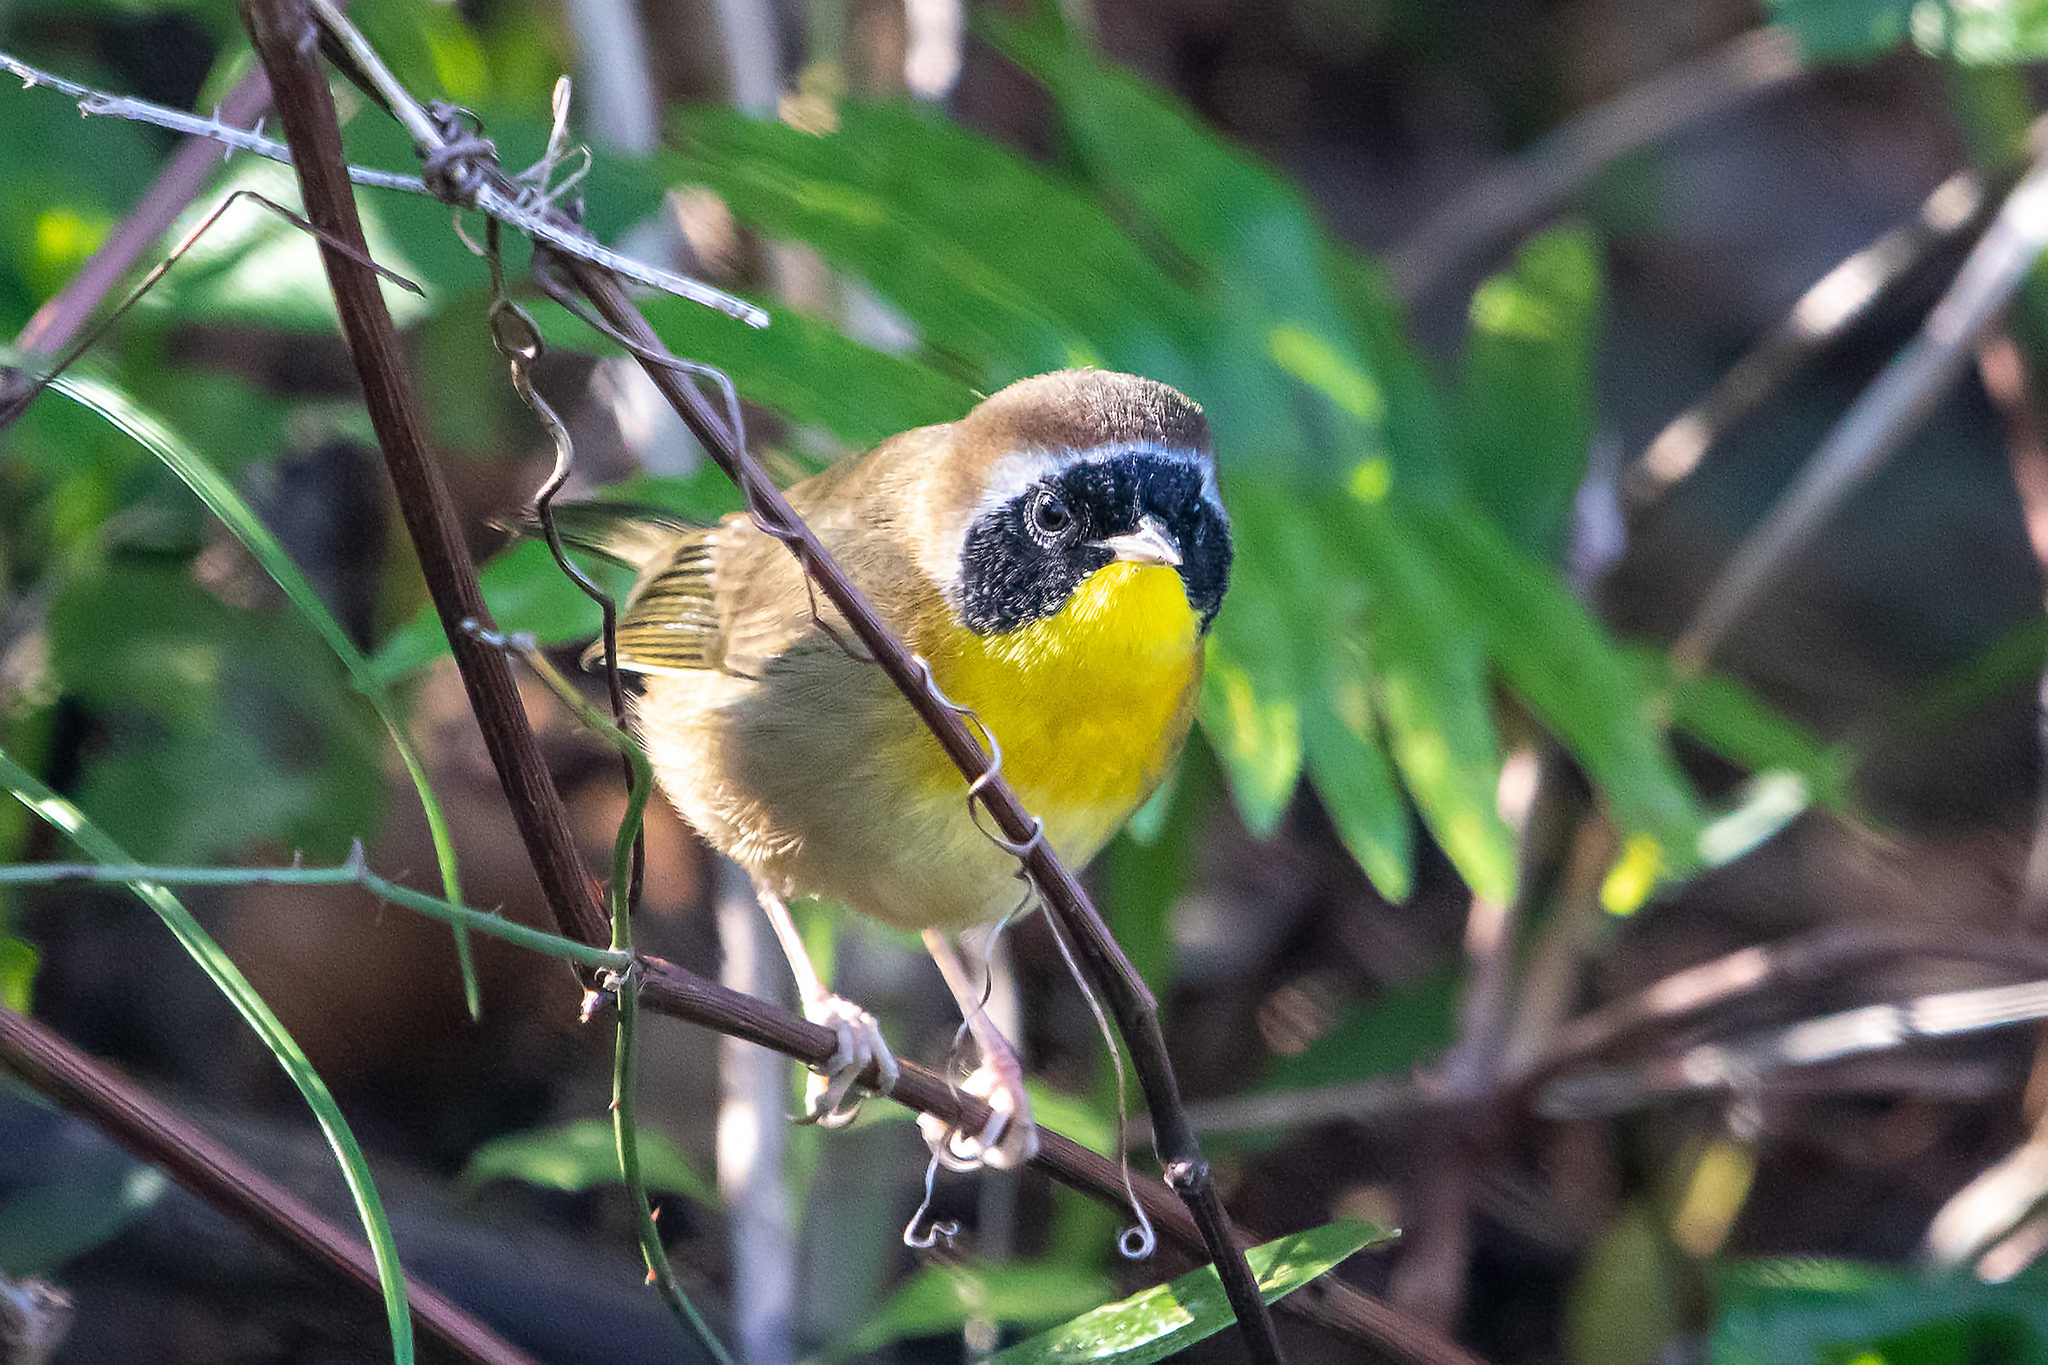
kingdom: Animalia
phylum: Chordata
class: Aves
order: Passeriformes
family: Parulidae
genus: Geothlypis
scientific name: Geothlypis trichas
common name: Common yellowthroat
